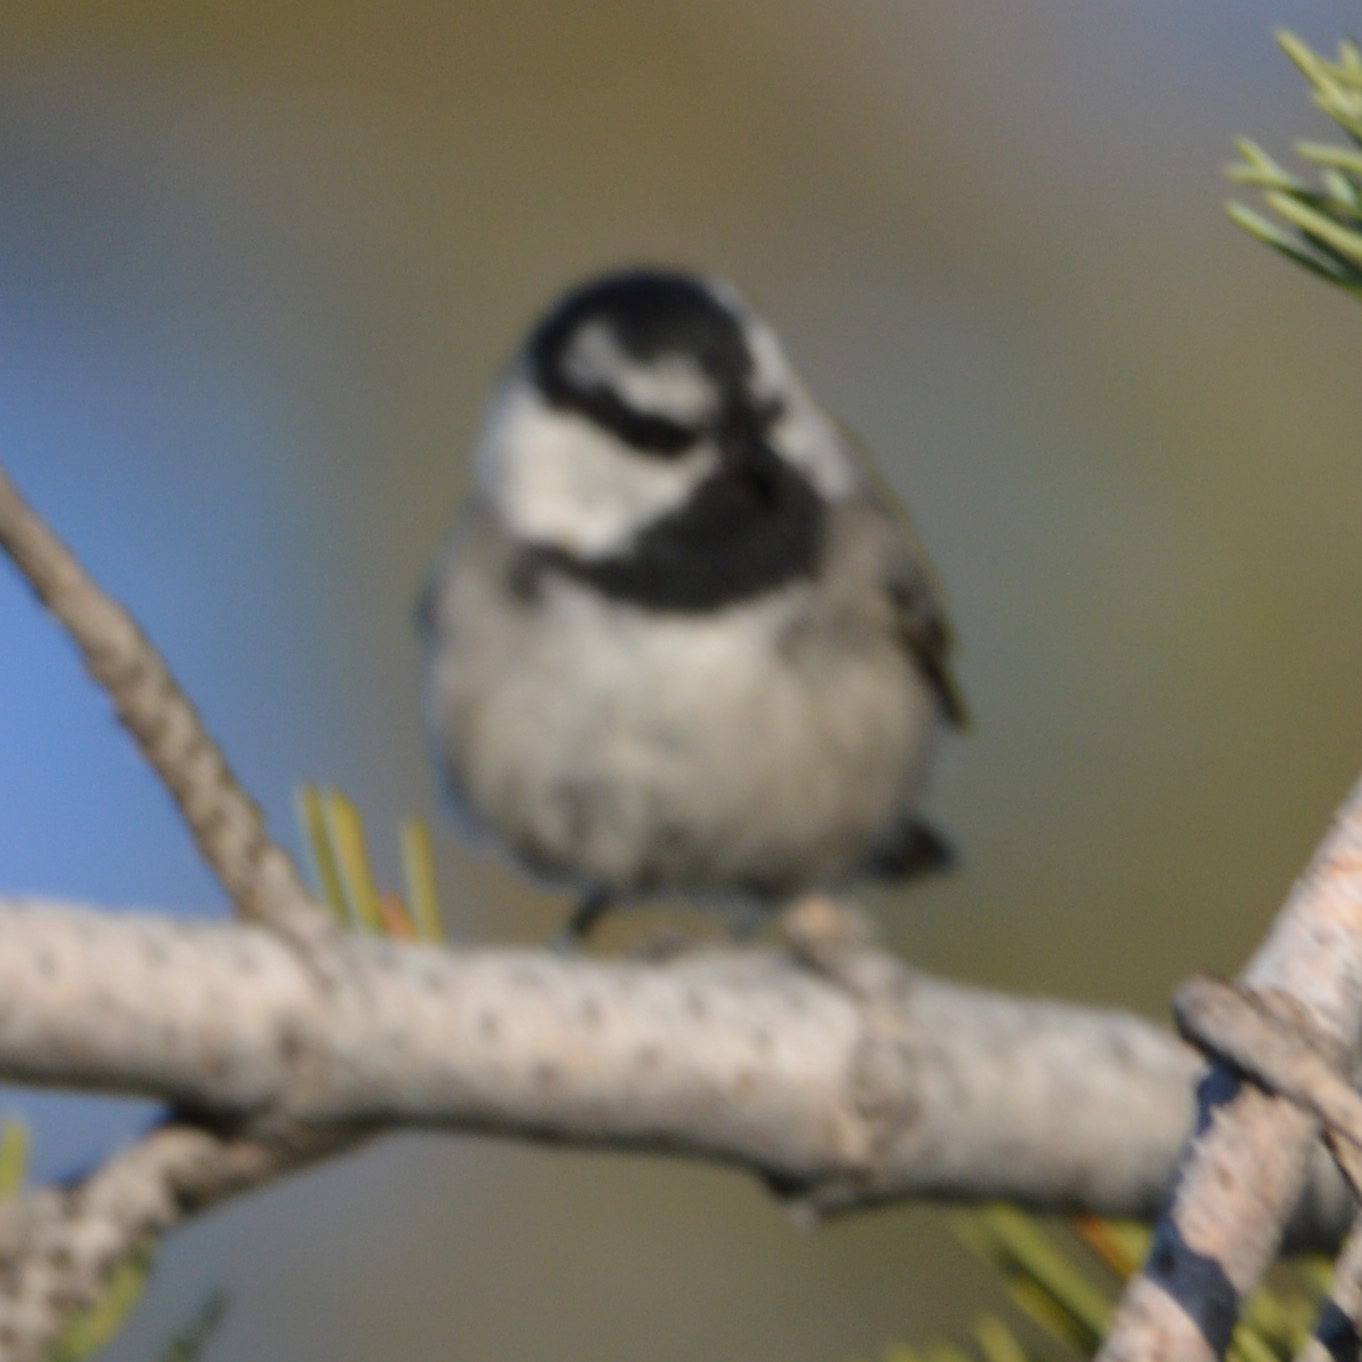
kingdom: Animalia
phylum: Chordata
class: Aves
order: Passeriformes
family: Paridae
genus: Poecile
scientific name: Poecile gambeli
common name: Mountain chickadee
